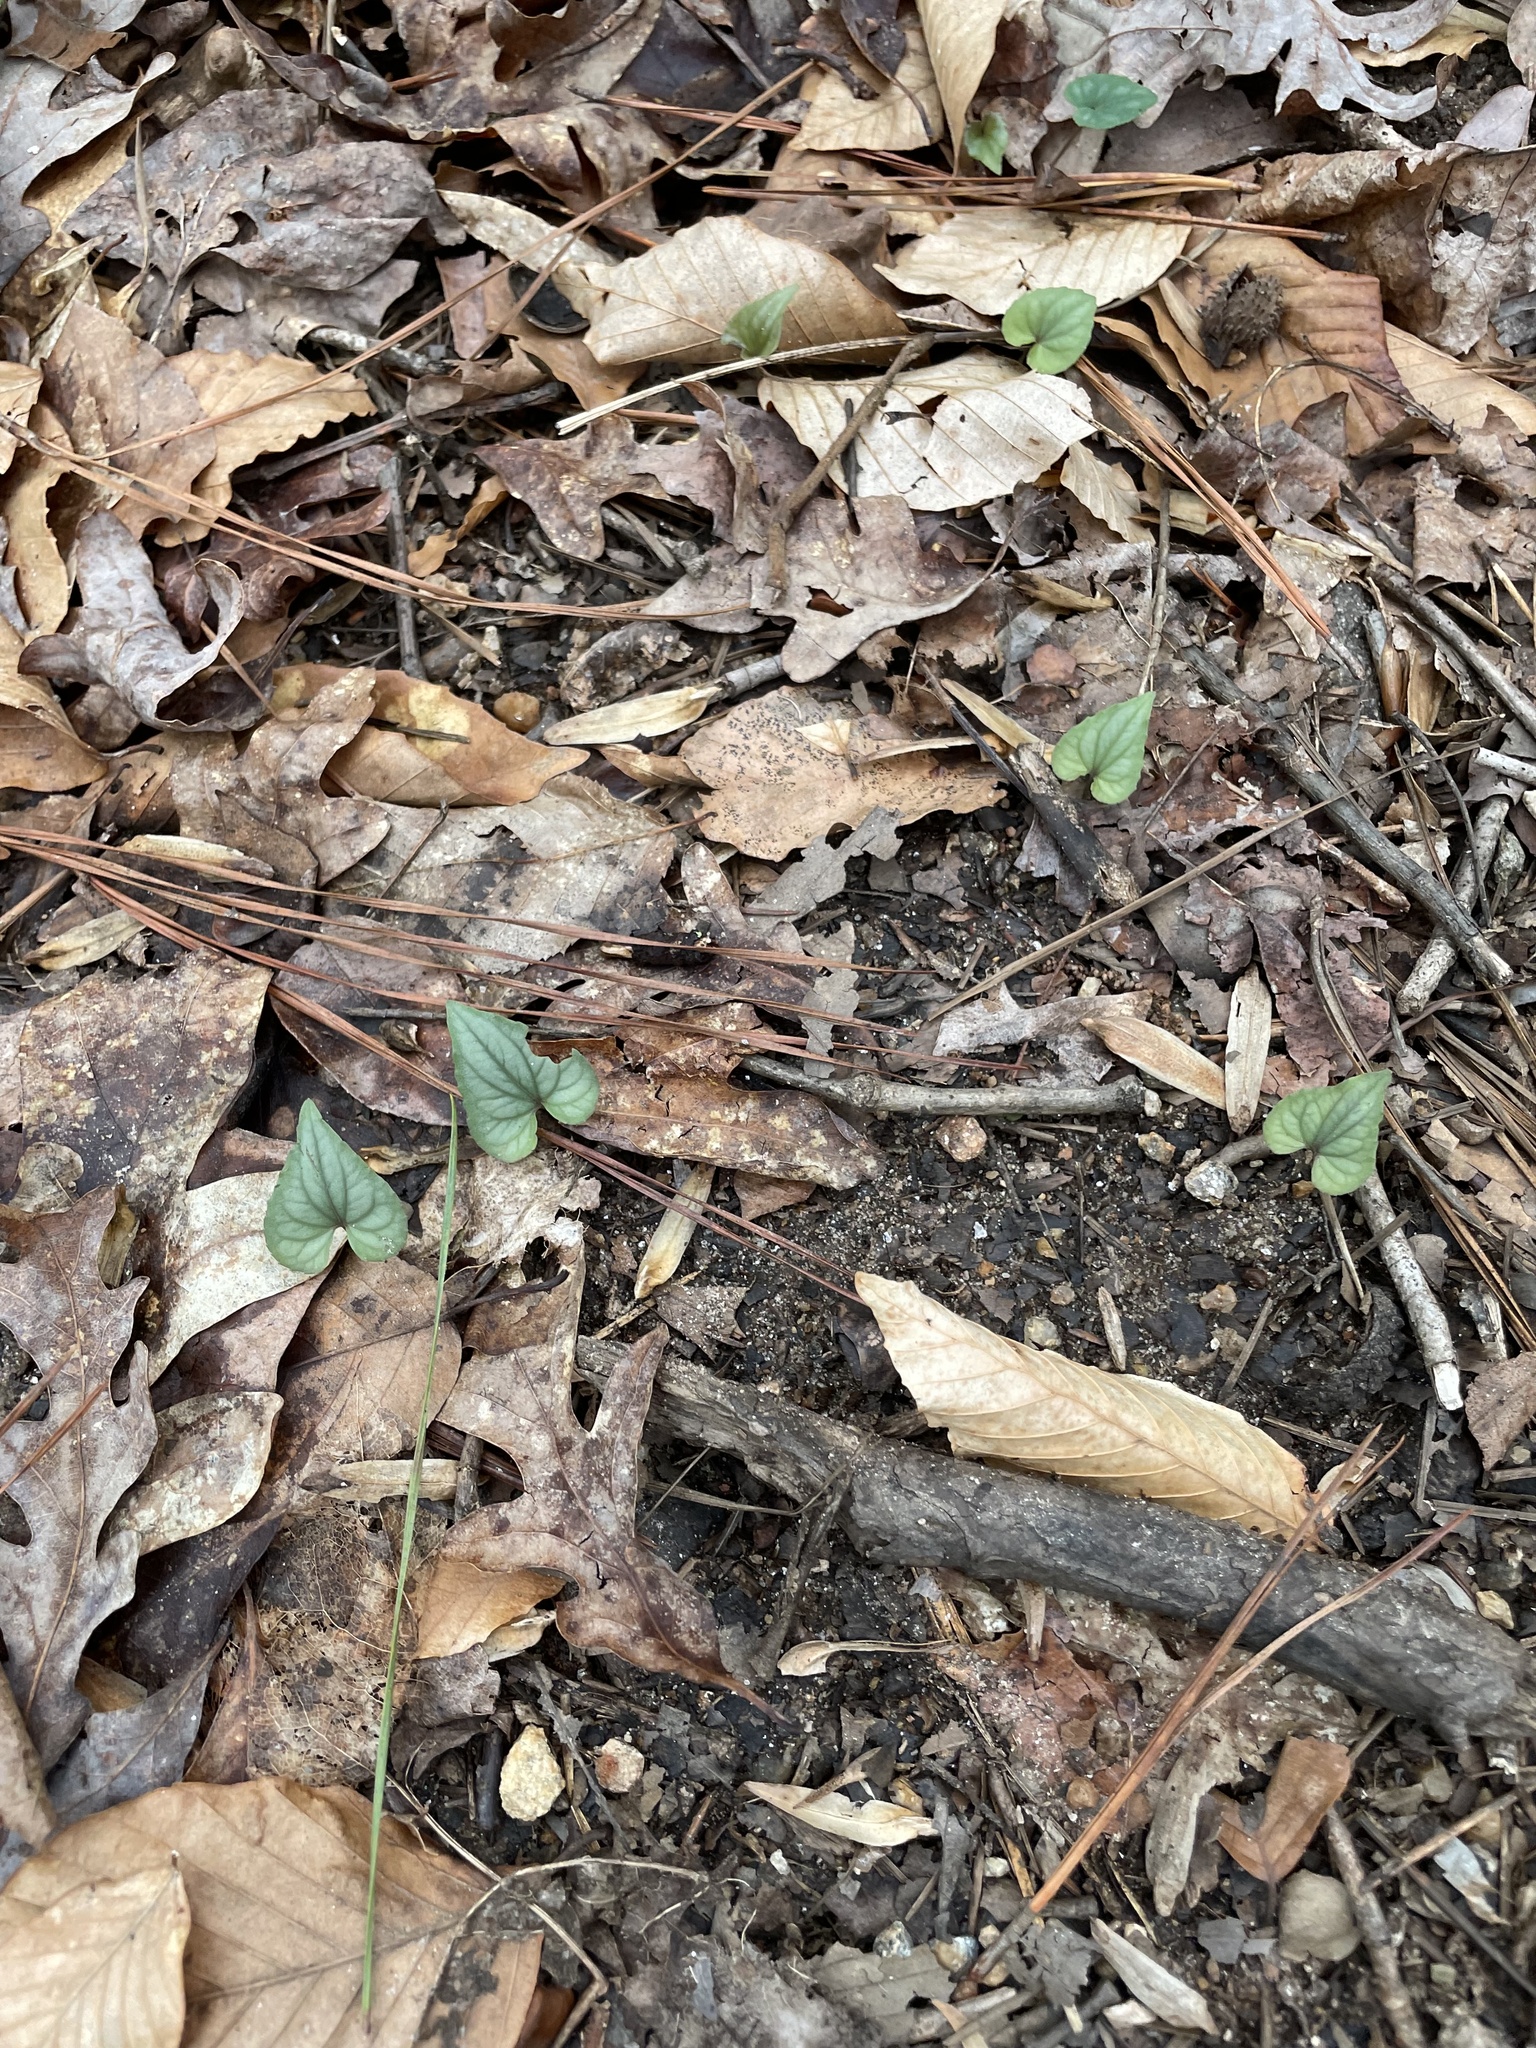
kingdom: Plantae
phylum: Tracheophyta
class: Magnoliopsida
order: Malpighiales
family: Violaceae
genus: Viola
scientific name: Viola hastata
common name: Spear-leaf violet
